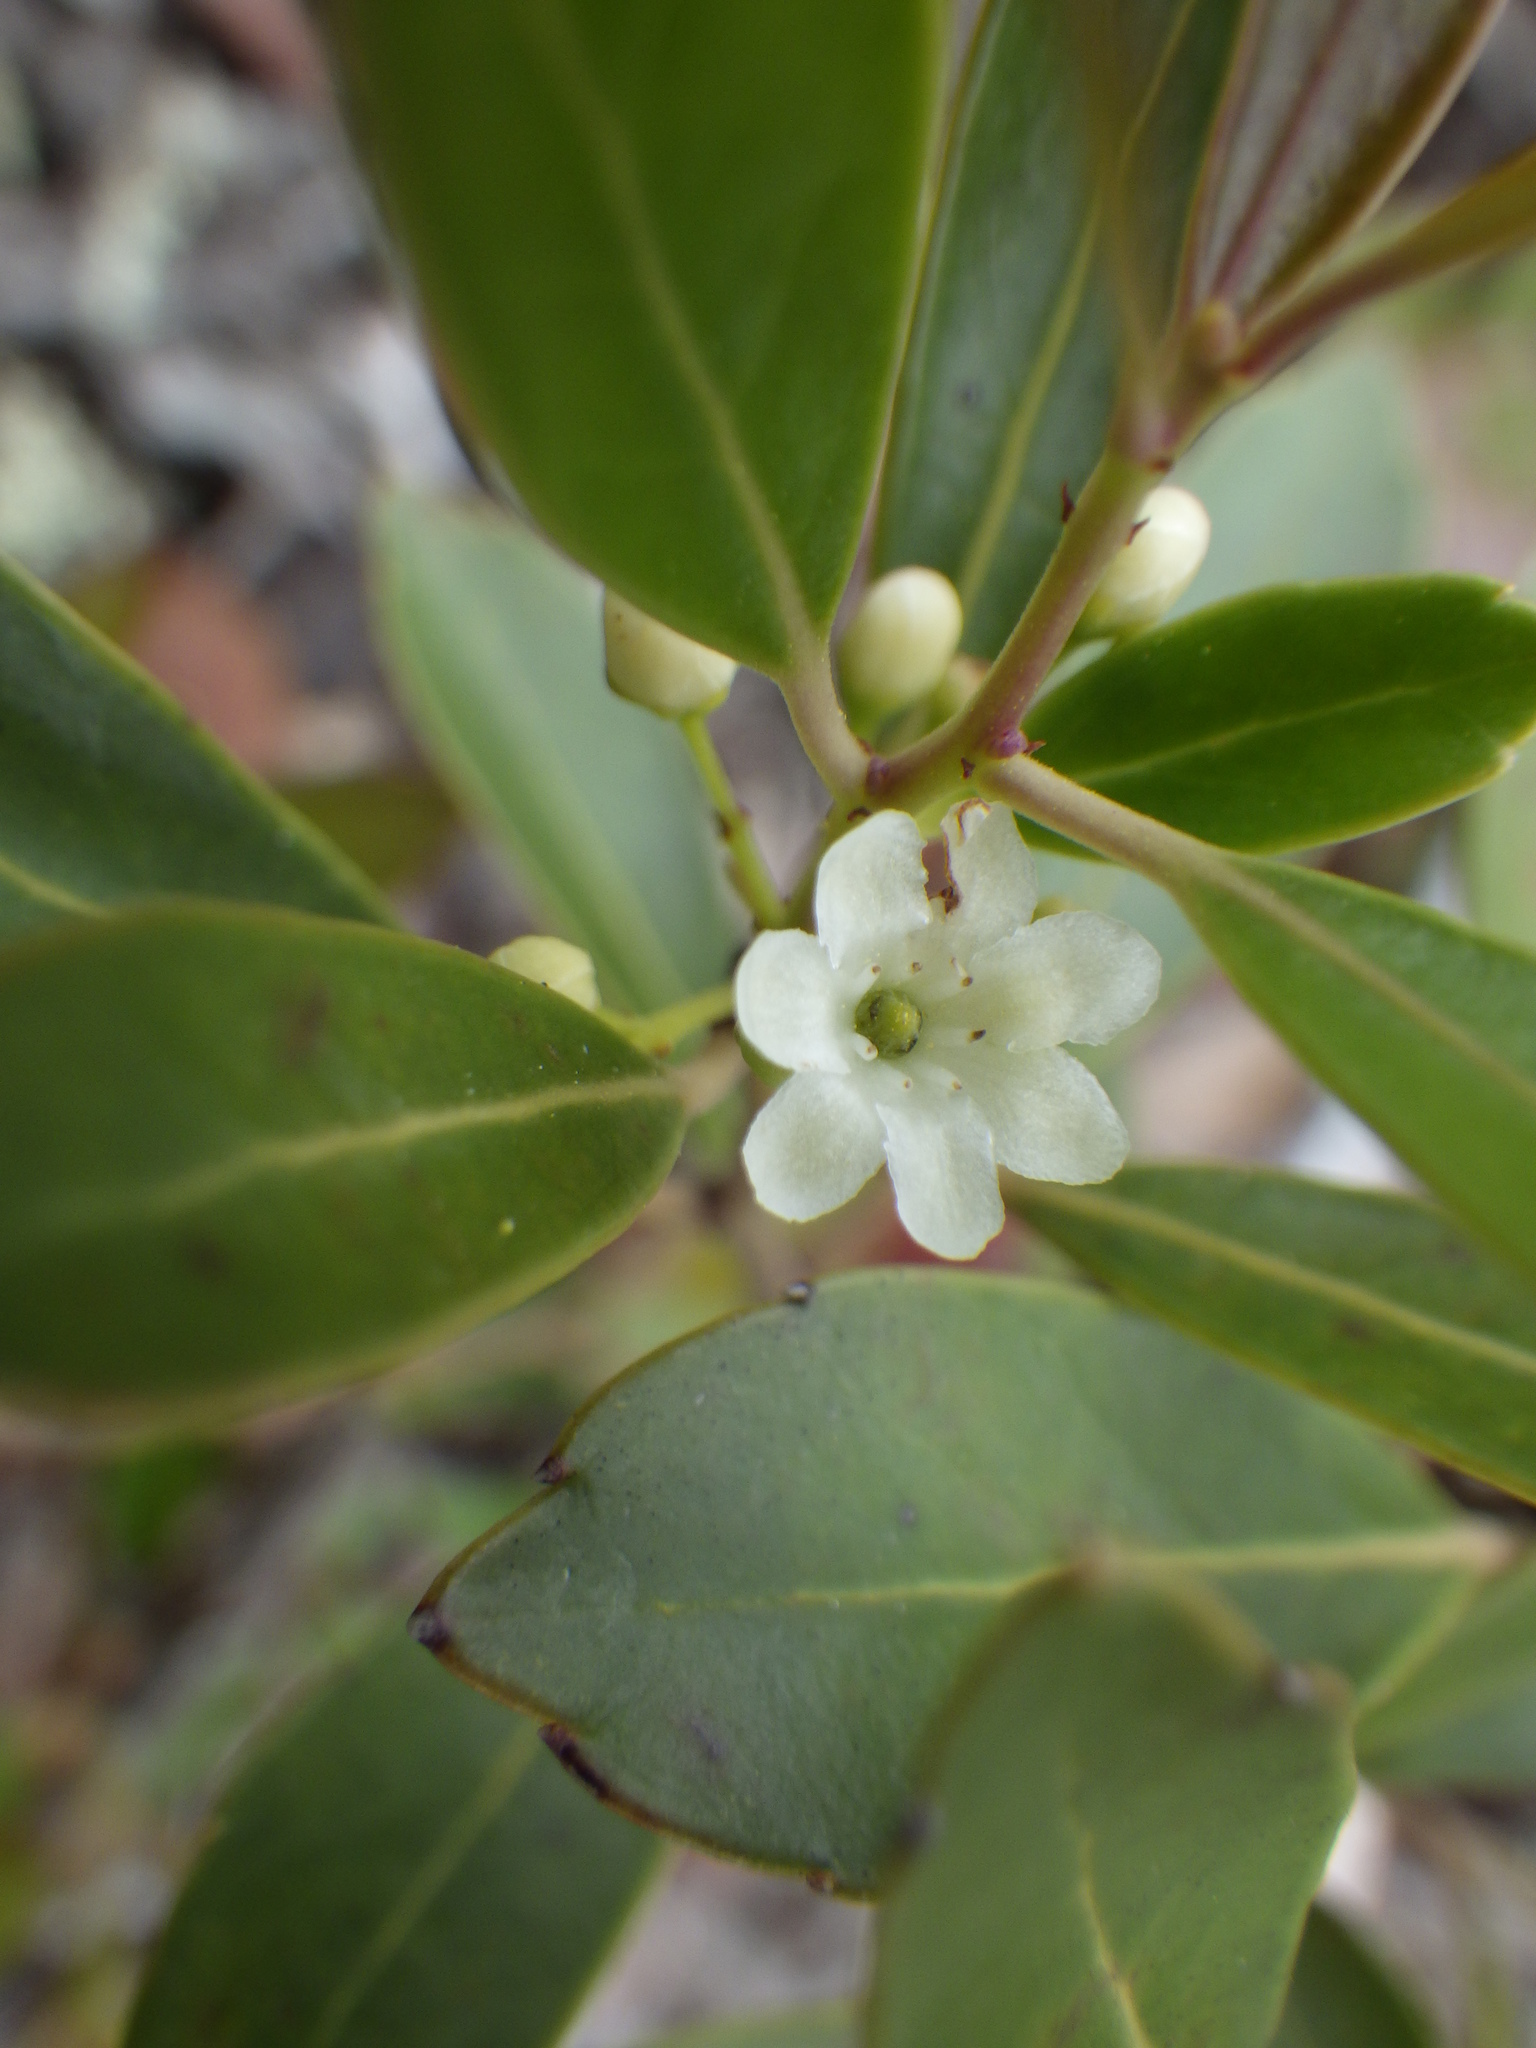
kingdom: Plantae
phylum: Tracheophyta
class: Magnoliopsida
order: Aquifoliales
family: Aquifoliaceae
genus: Ilex
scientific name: Ilex glabra
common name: Bitter gallberry
